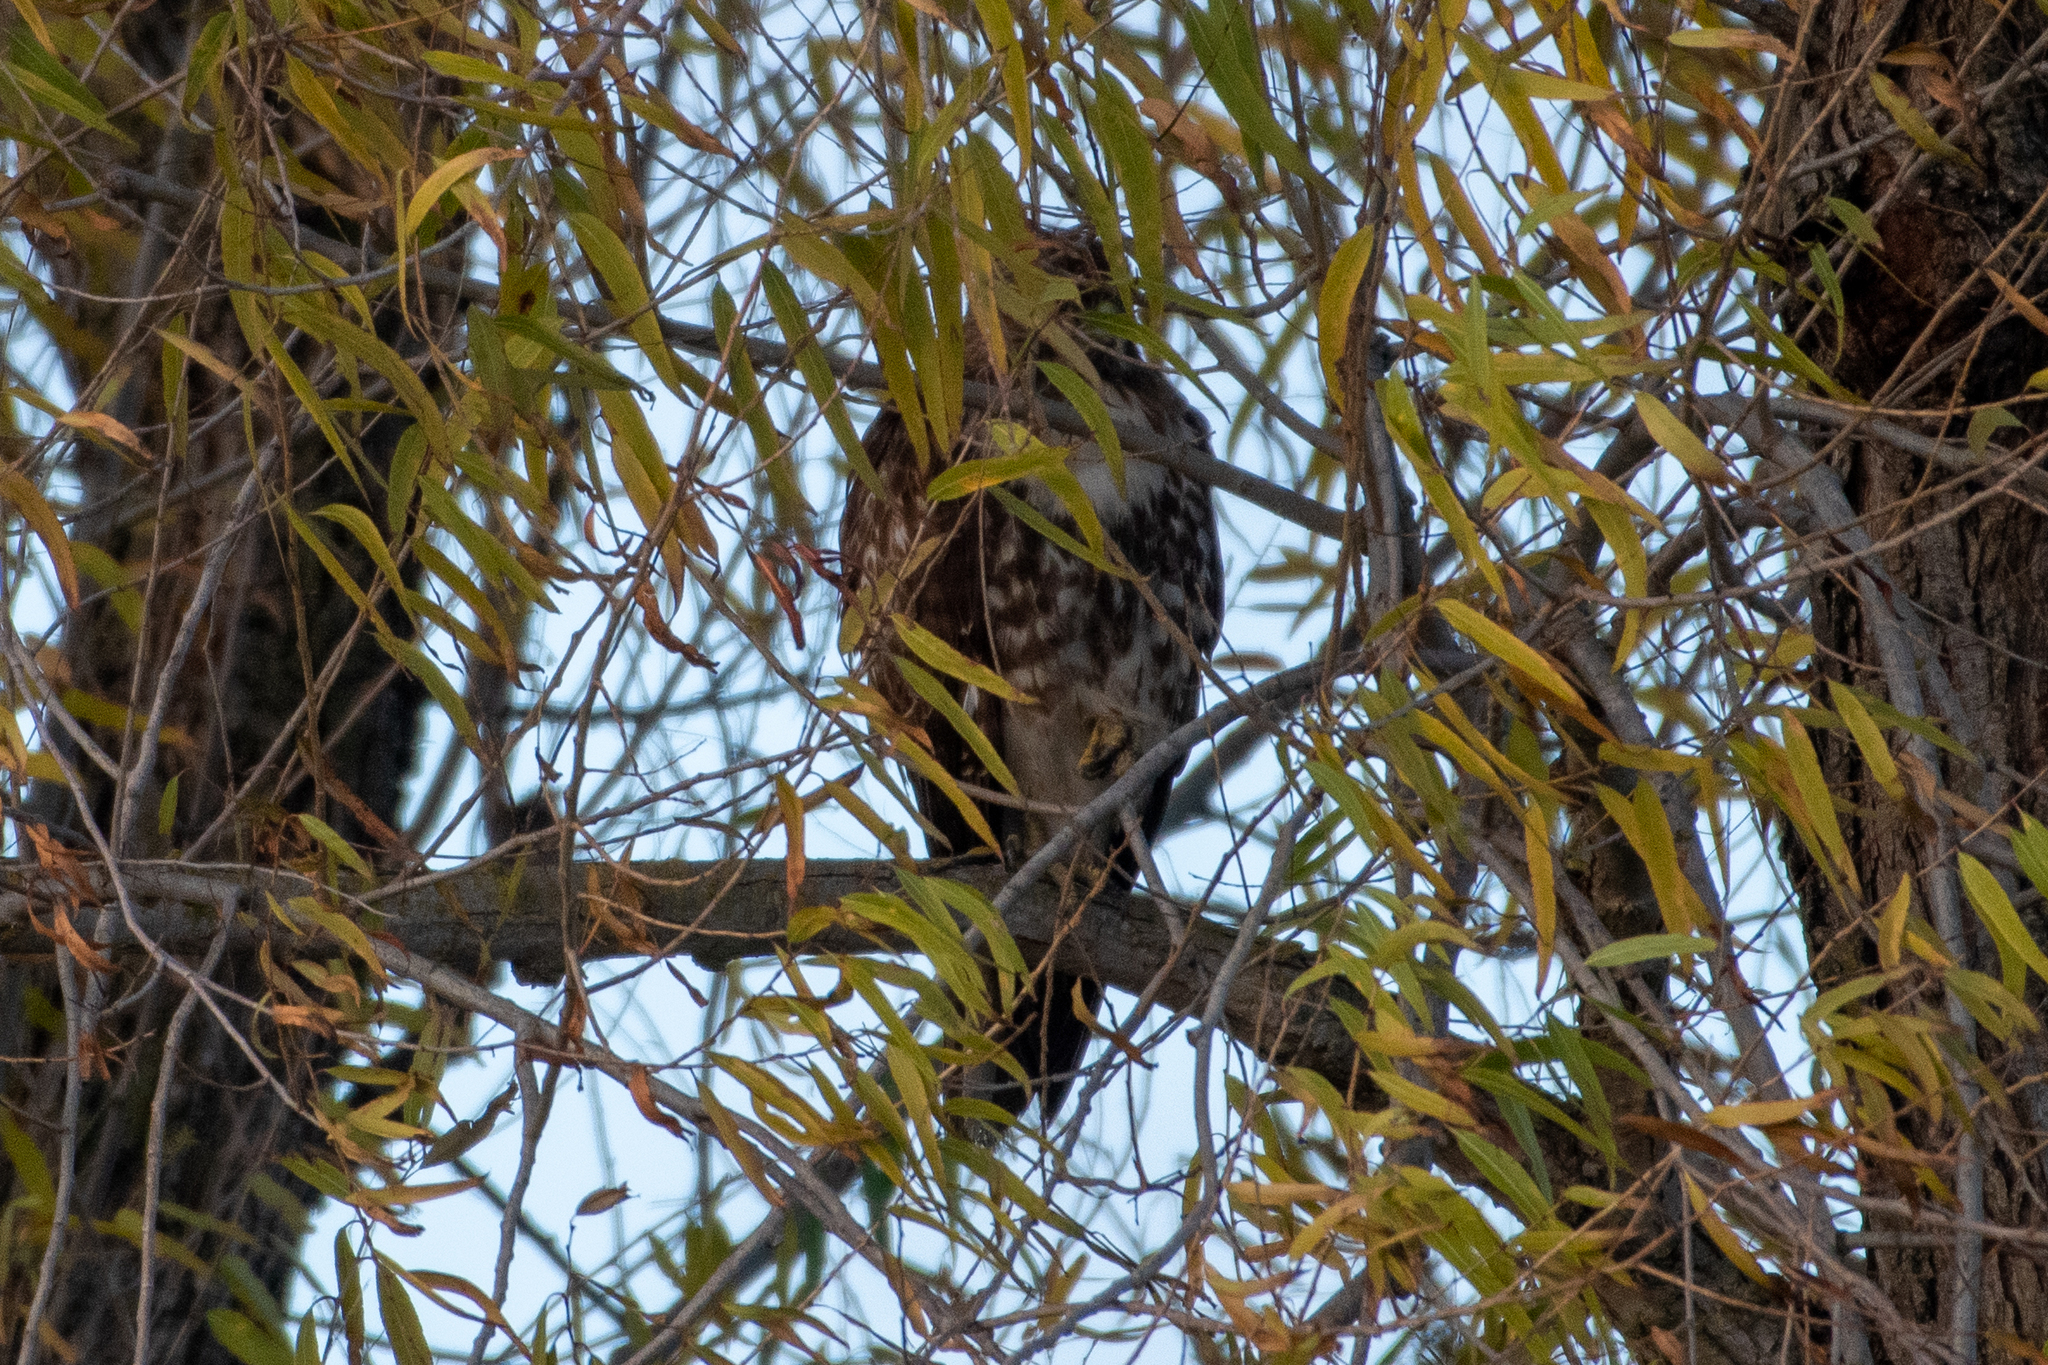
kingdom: Animalia
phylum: Chordata
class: Aves
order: Accipitriformes
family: Accipitridae
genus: Buteo
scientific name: Buteo jamaicensis
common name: Red-tailed hawk
